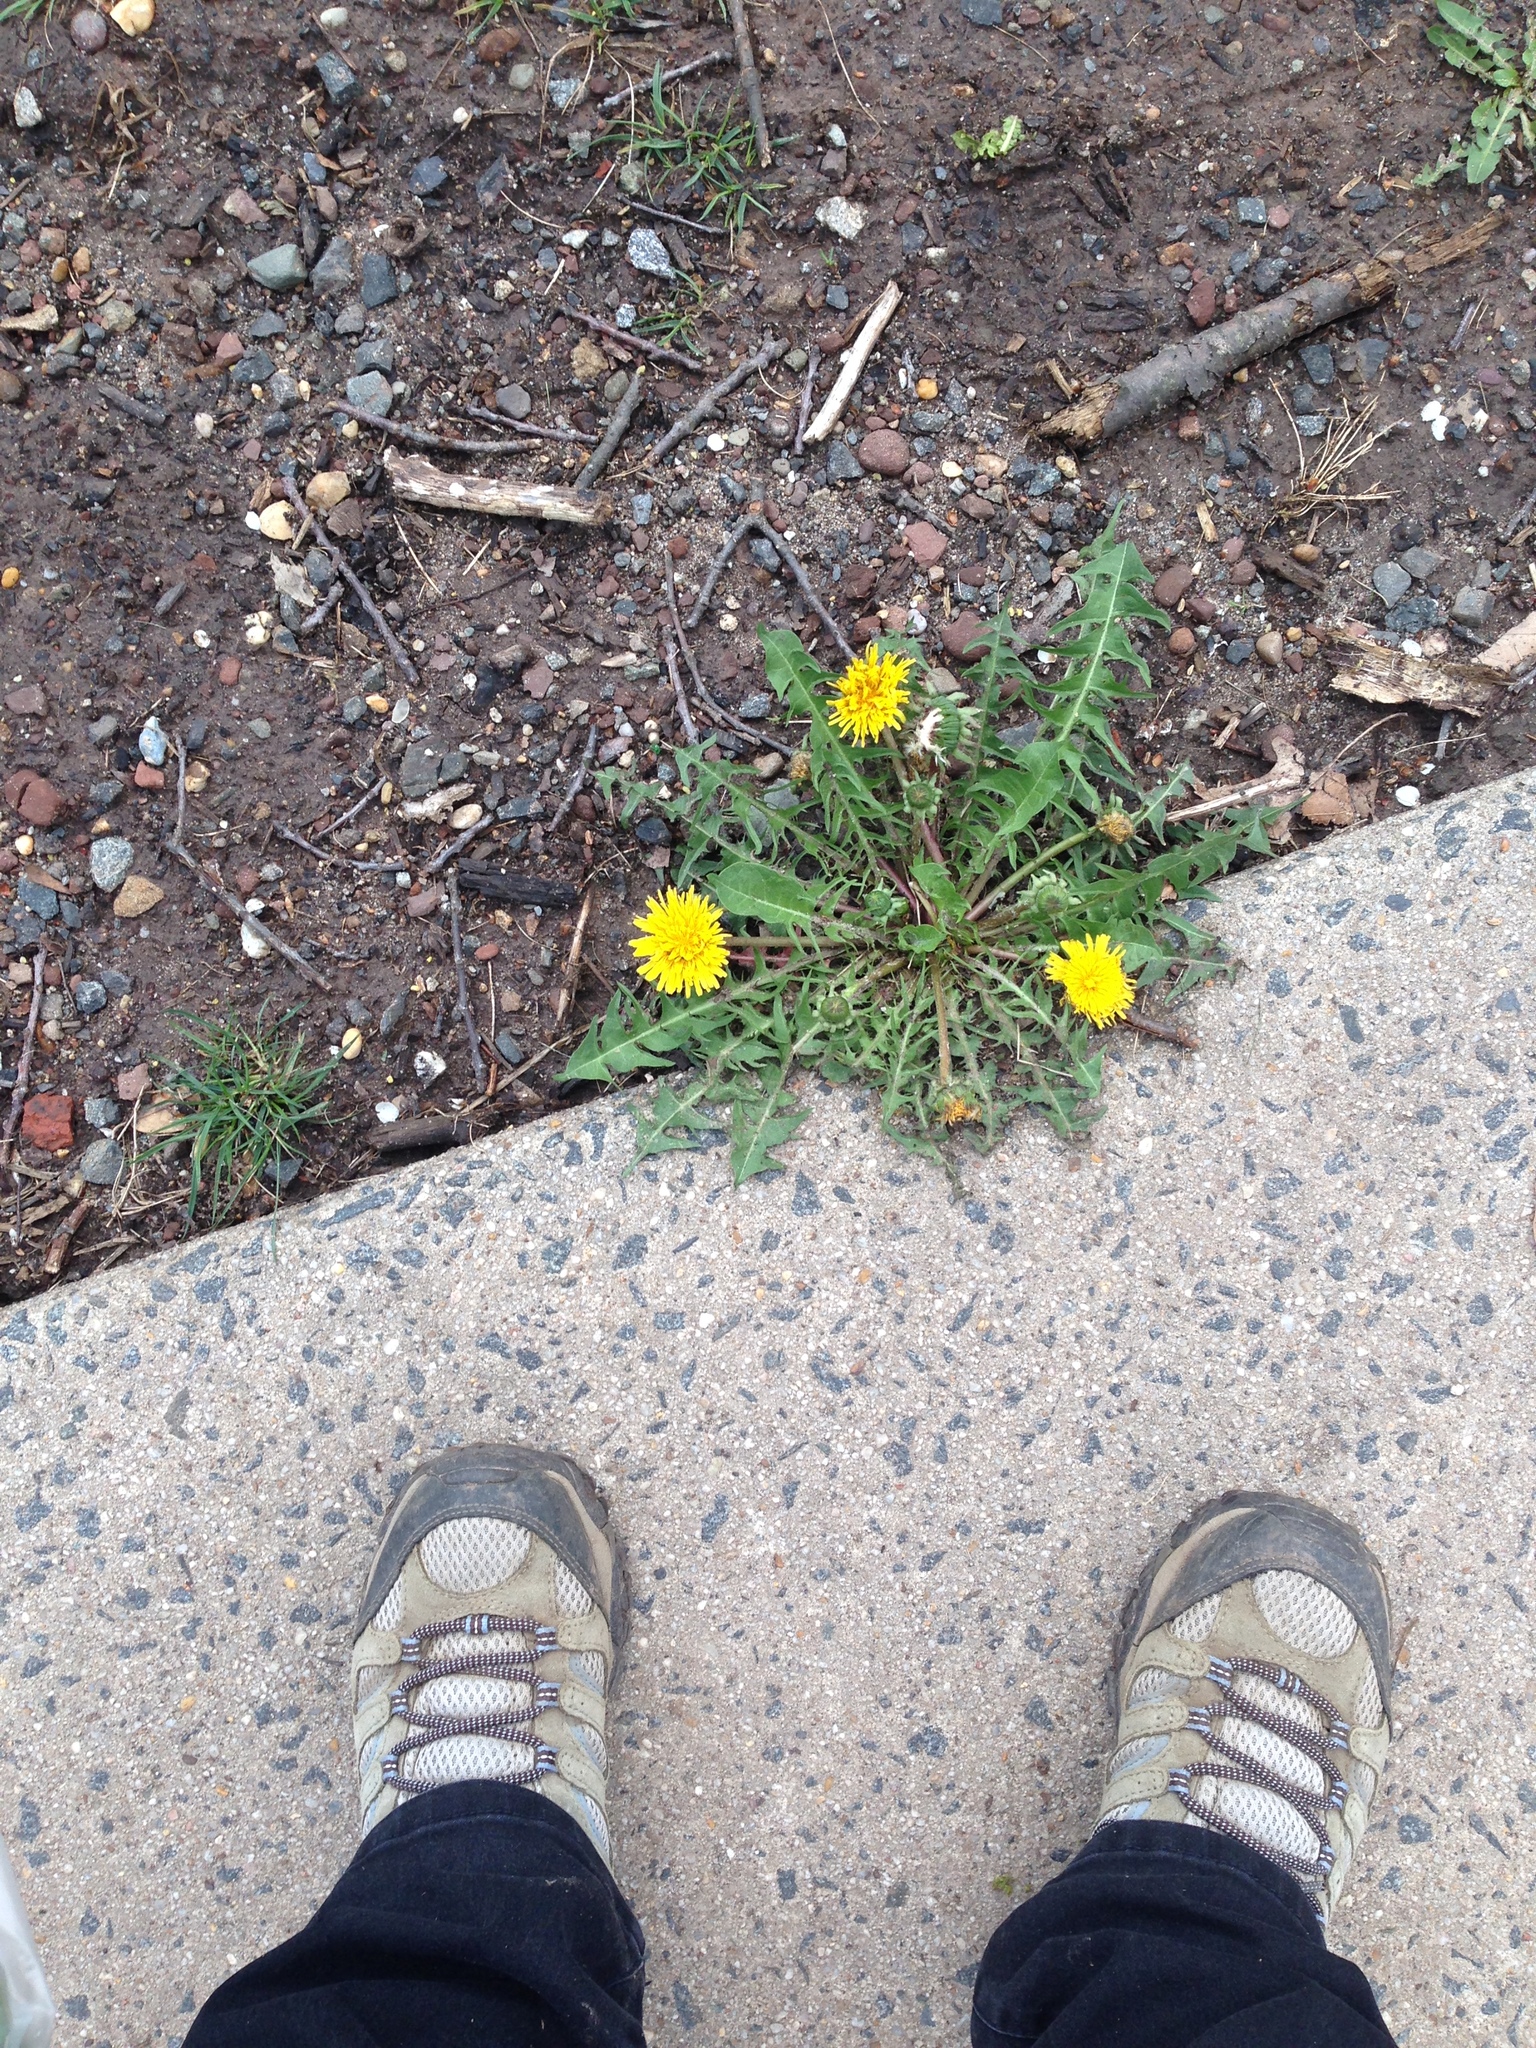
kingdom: Plantae
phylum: Tracheophyta
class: Magnoliopsida
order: Asterales
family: Asteraceae
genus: Taraxacum
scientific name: Taraxacum officinale
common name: Common dandelion
